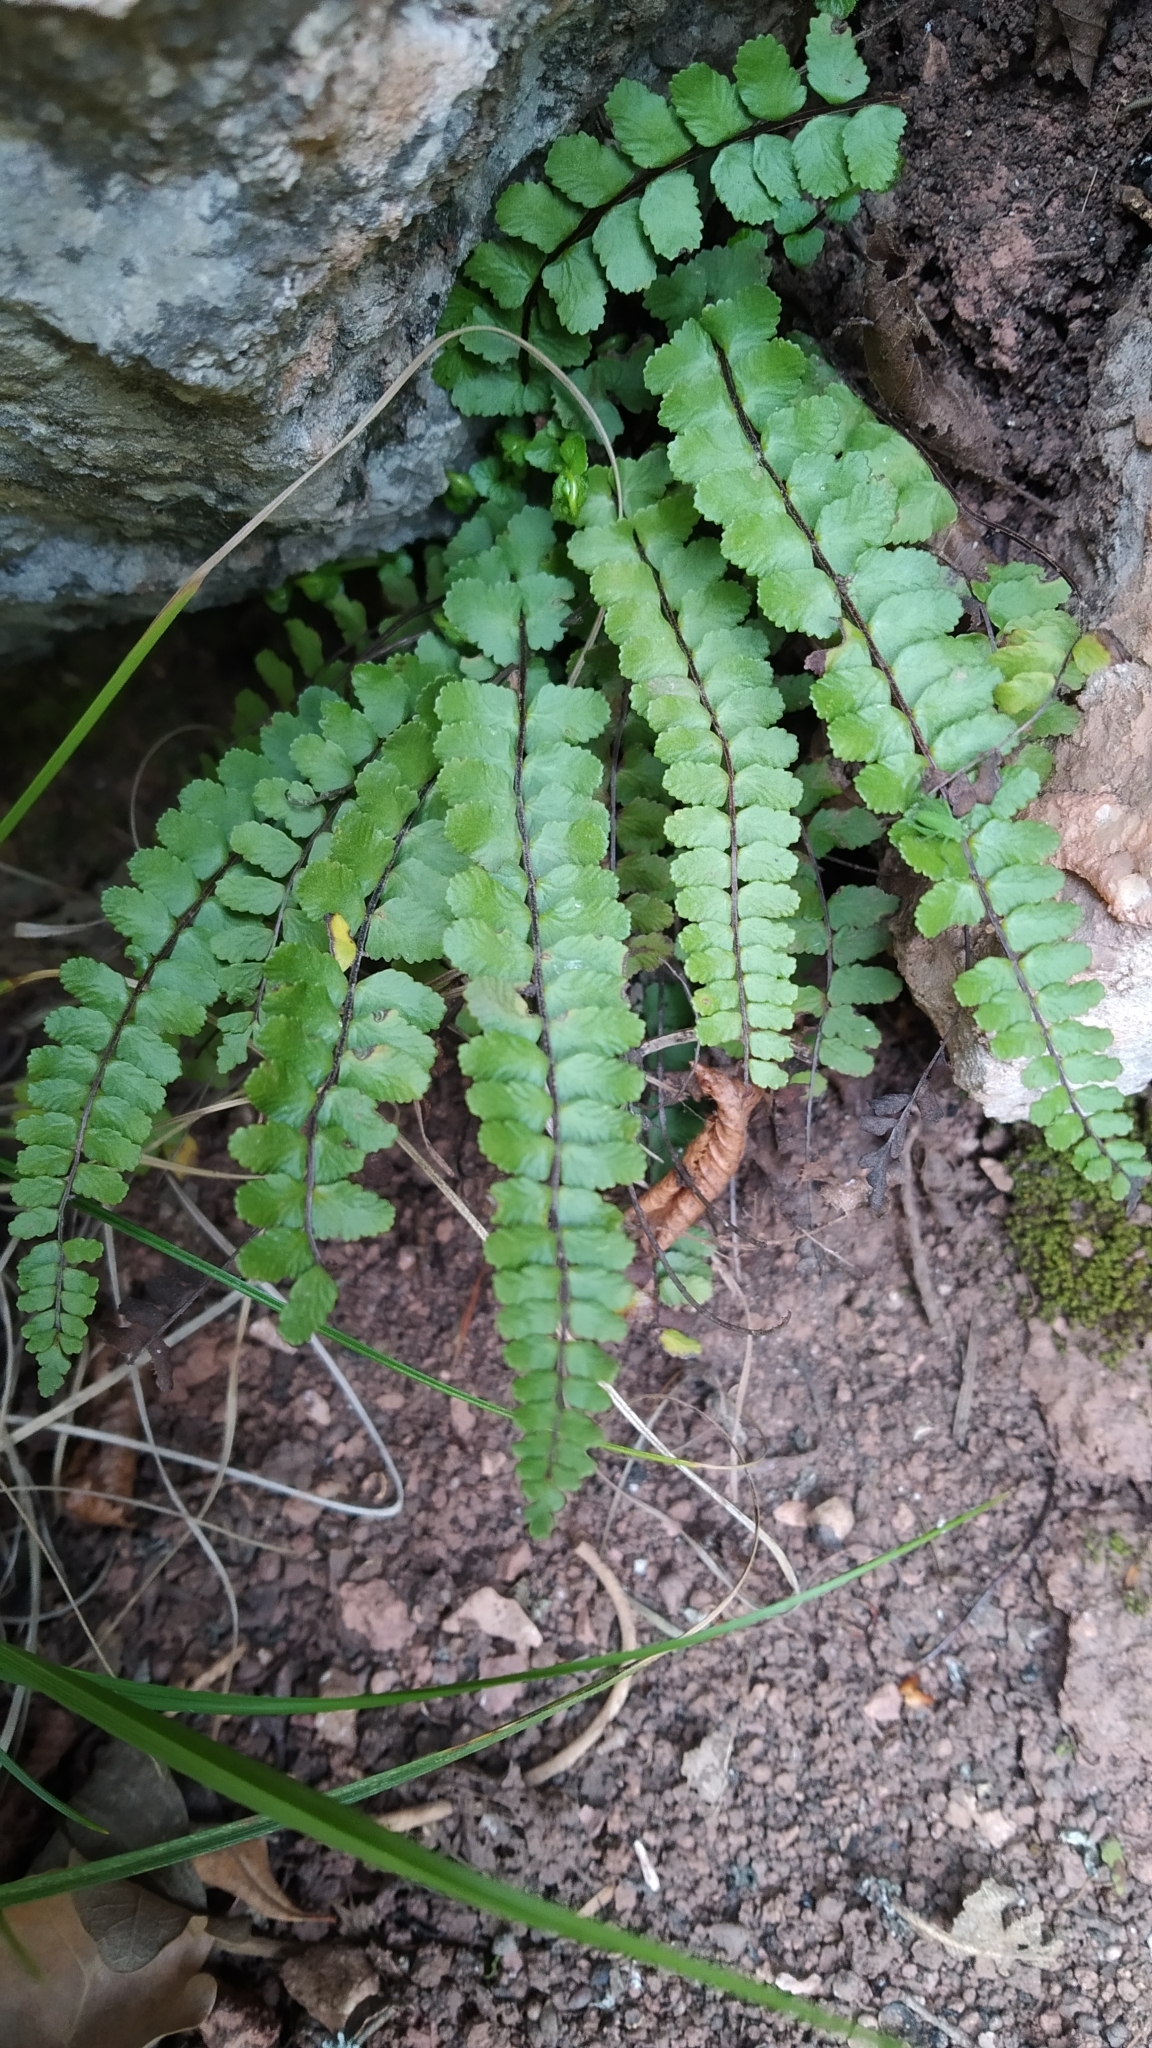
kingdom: Plantae
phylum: Tracheophyta
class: Polypodiopsida
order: Polypodiales
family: Aspleniaceae
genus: Asplenium
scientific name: Asplenium trichomanes
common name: Maidenhair spleenwort
